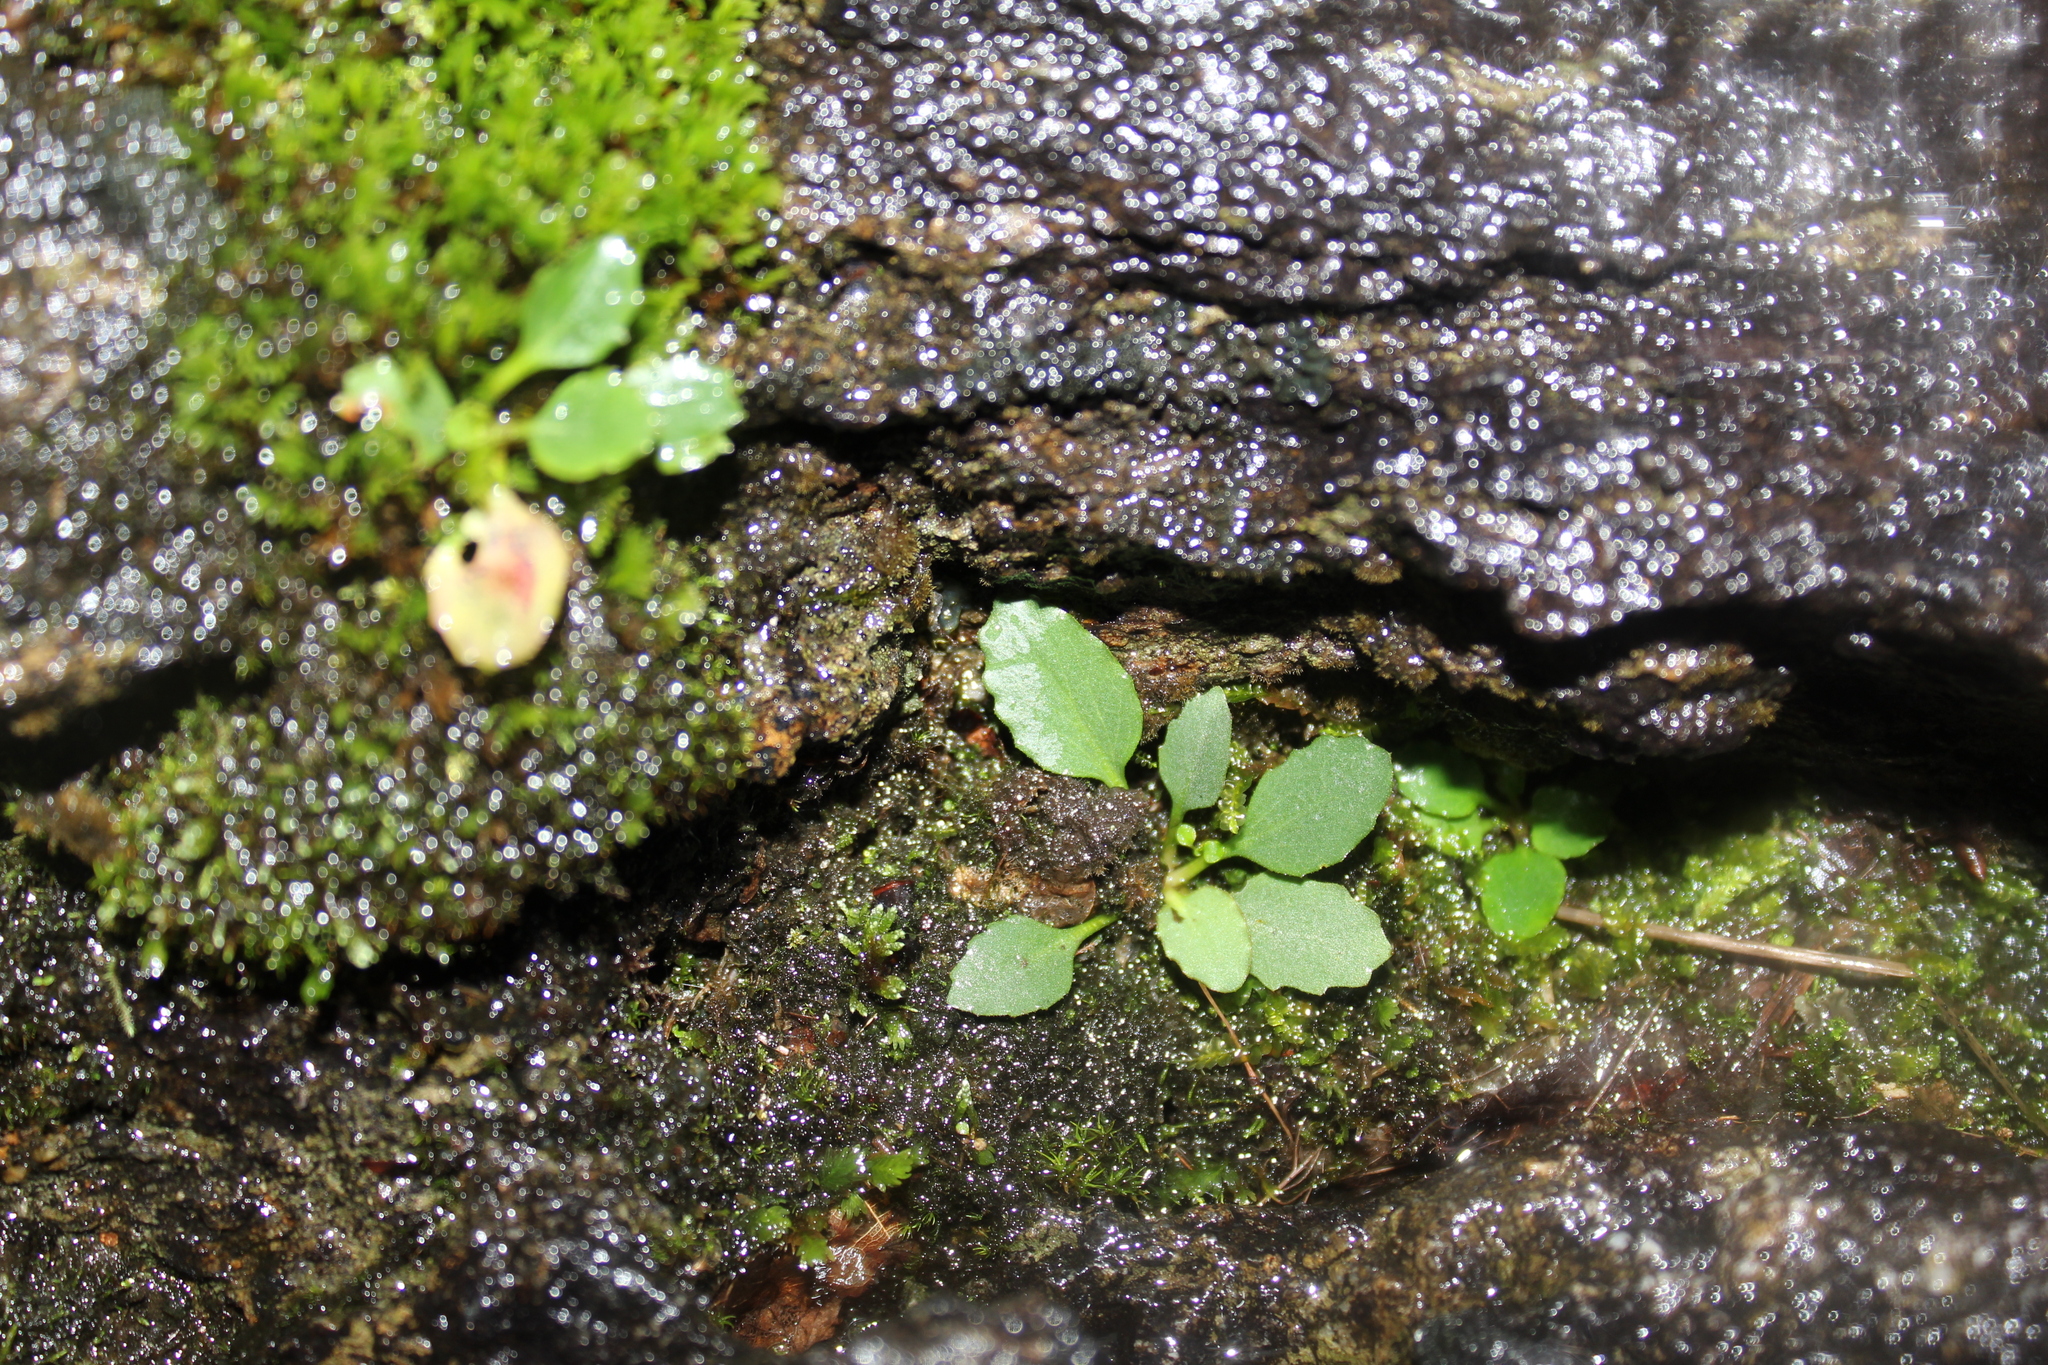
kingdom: Plantae
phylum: Tracheophyta
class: Magnoliopsida
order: Saxifragales
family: Saxifragaceae
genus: Micranthes
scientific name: Micranthes virginiensis
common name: Early saxifrage
